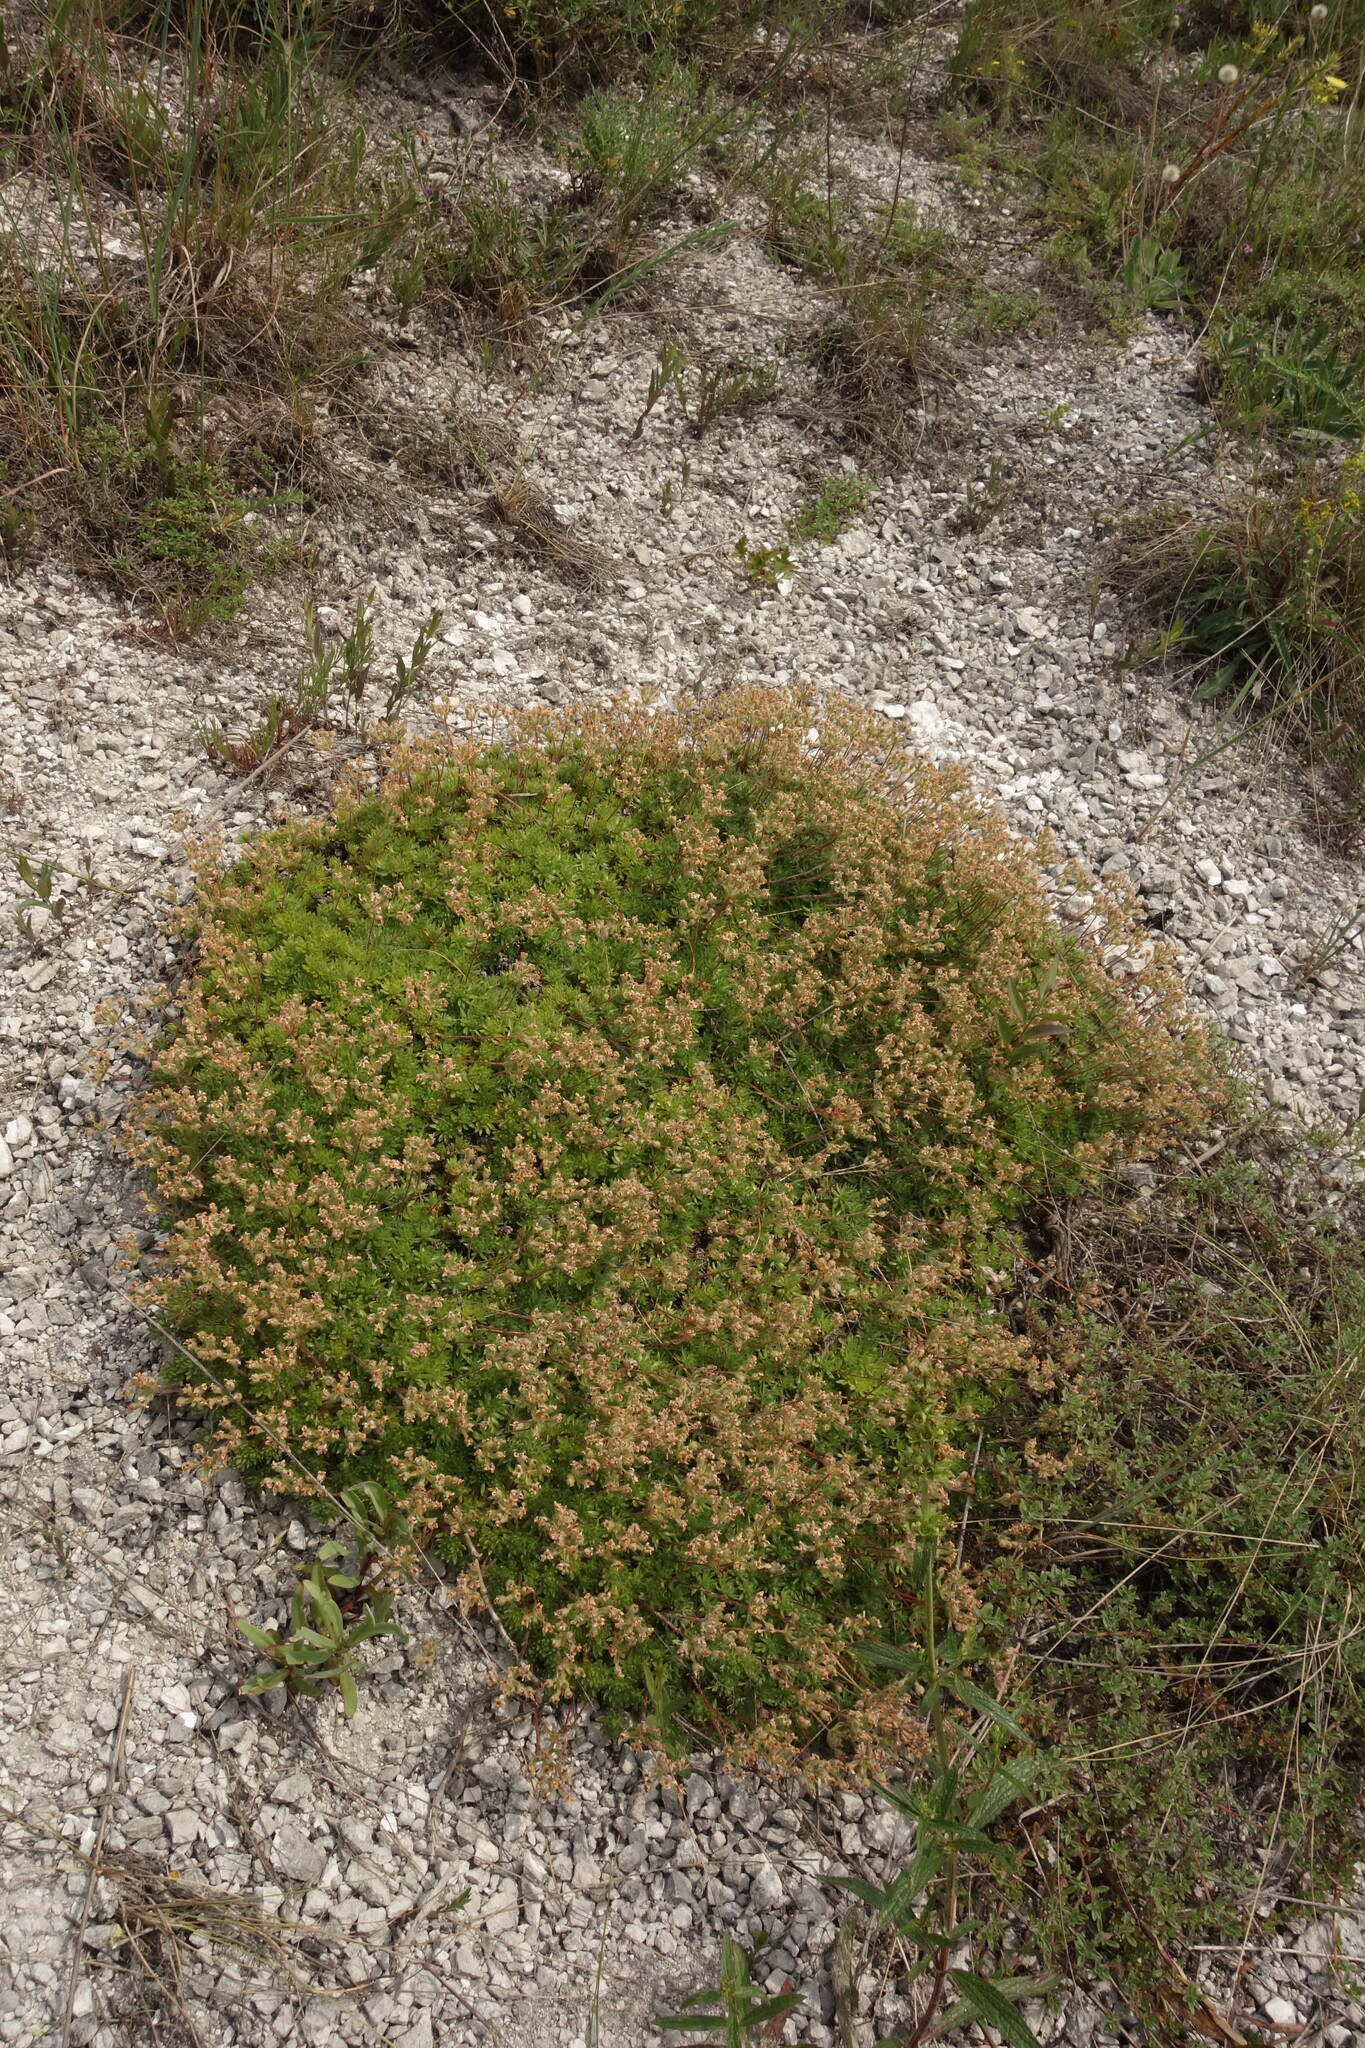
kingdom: Plantae
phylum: Tracheophyta
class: Magnoliopsida
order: Ericales
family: Primulaceae
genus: Androsace
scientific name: Androsace villosa
